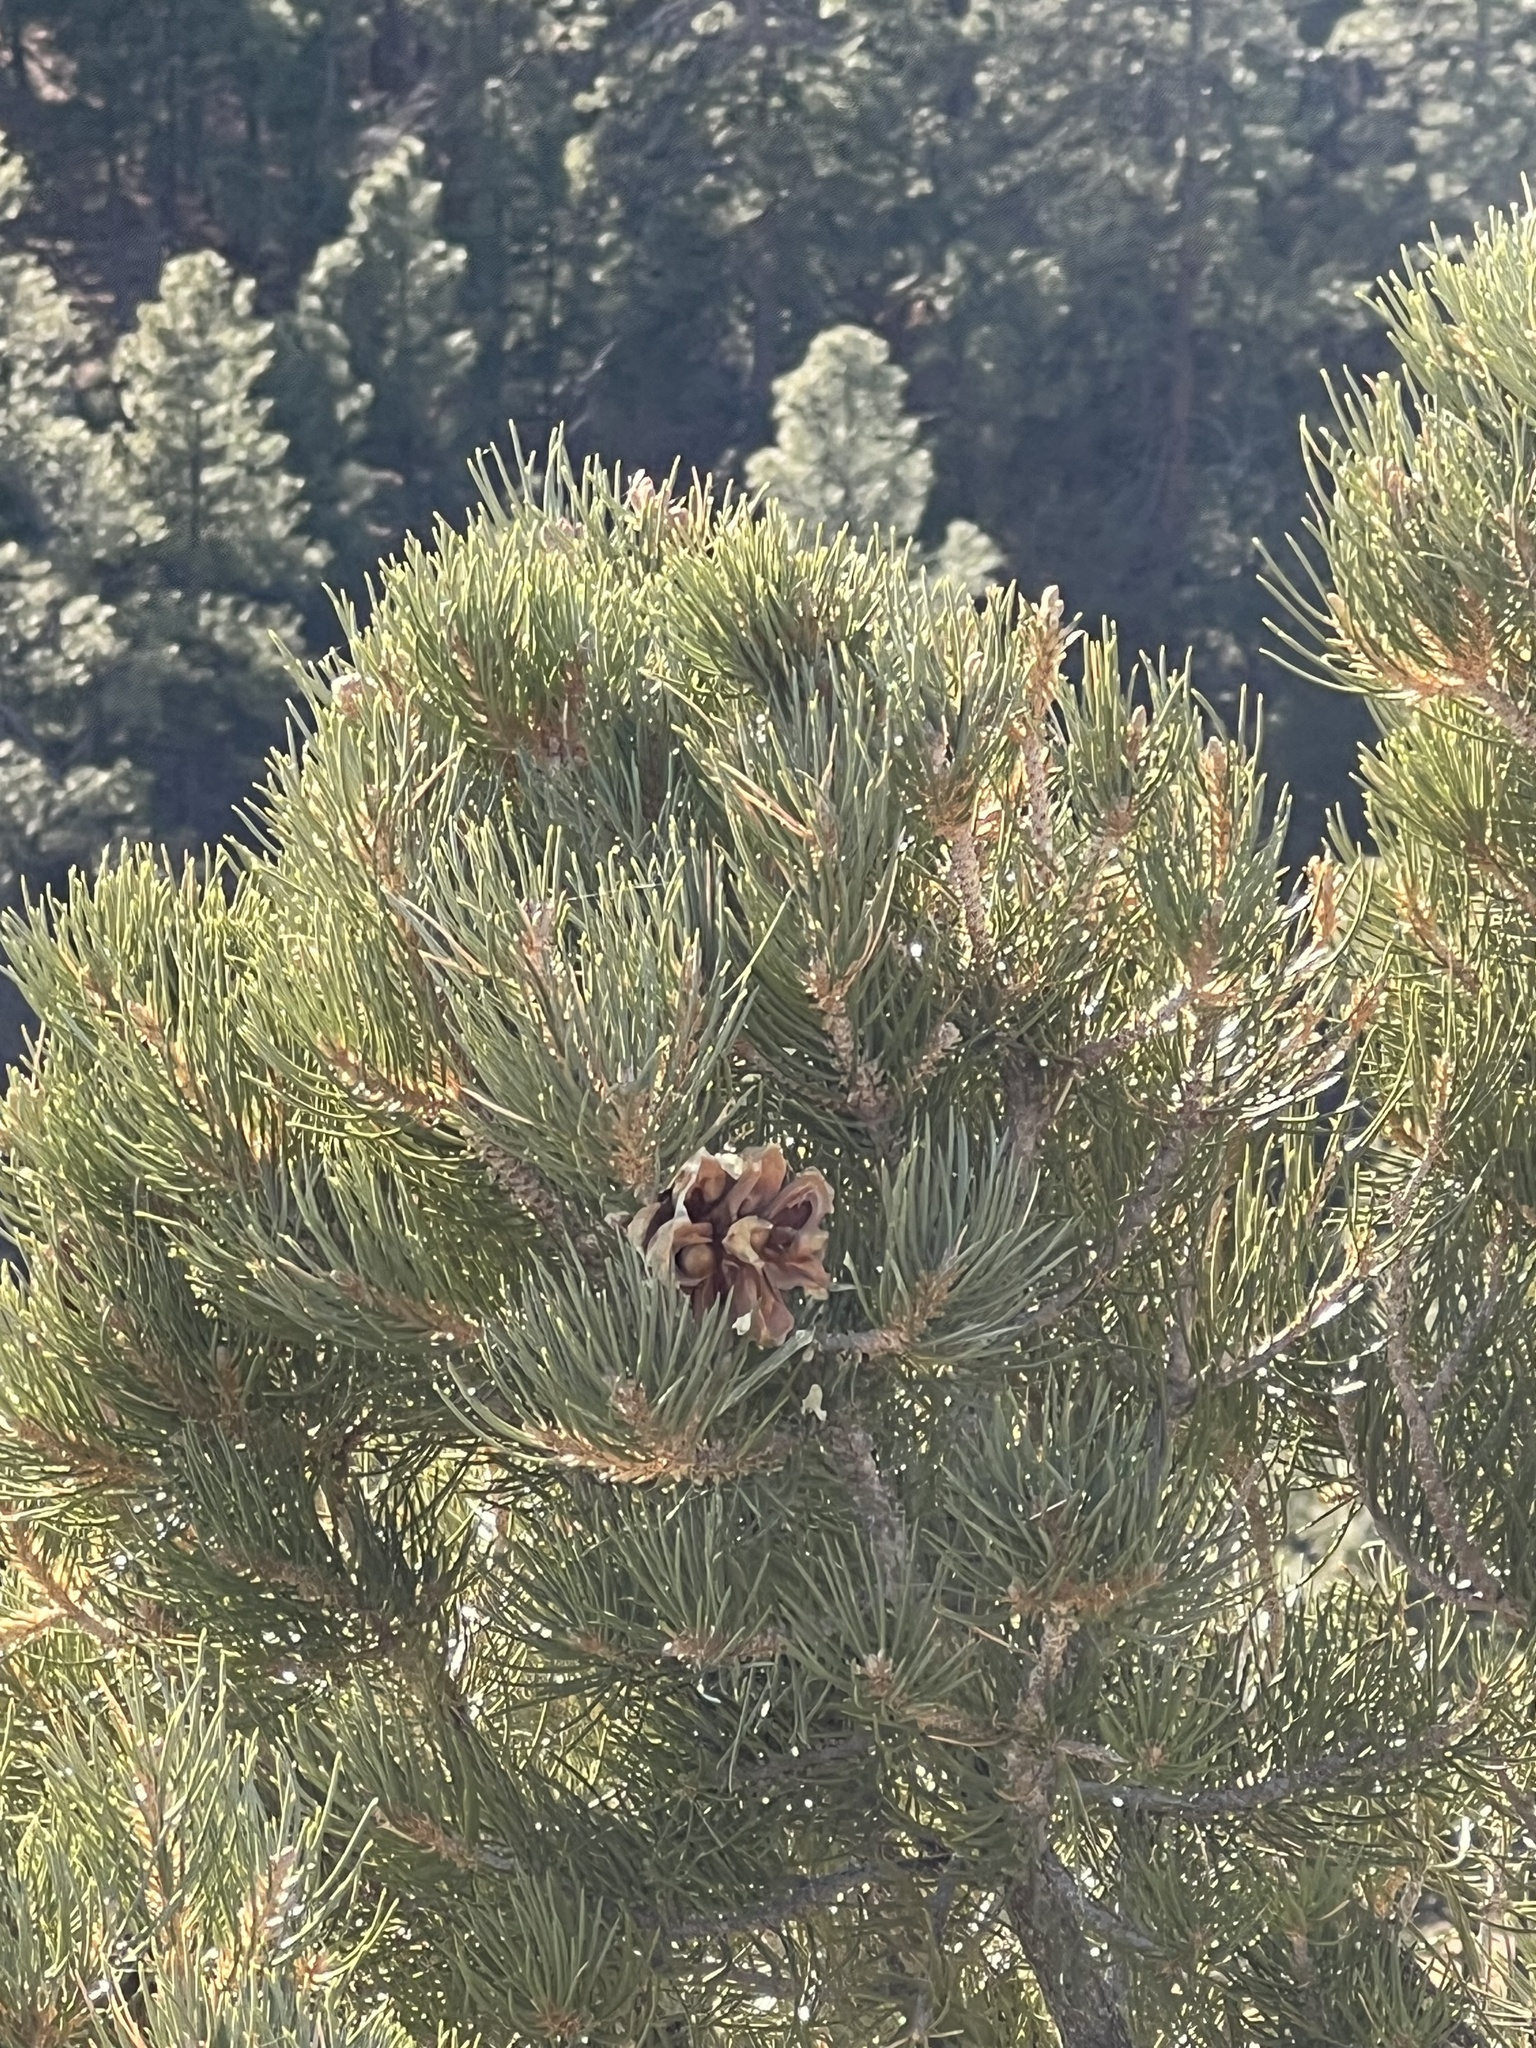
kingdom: Plantae
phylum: Tracheophyta
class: Pinopsida
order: Pinales
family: Pinaceae
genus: Pinus
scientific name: Pinus monophylla
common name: One-leaved nut pine
